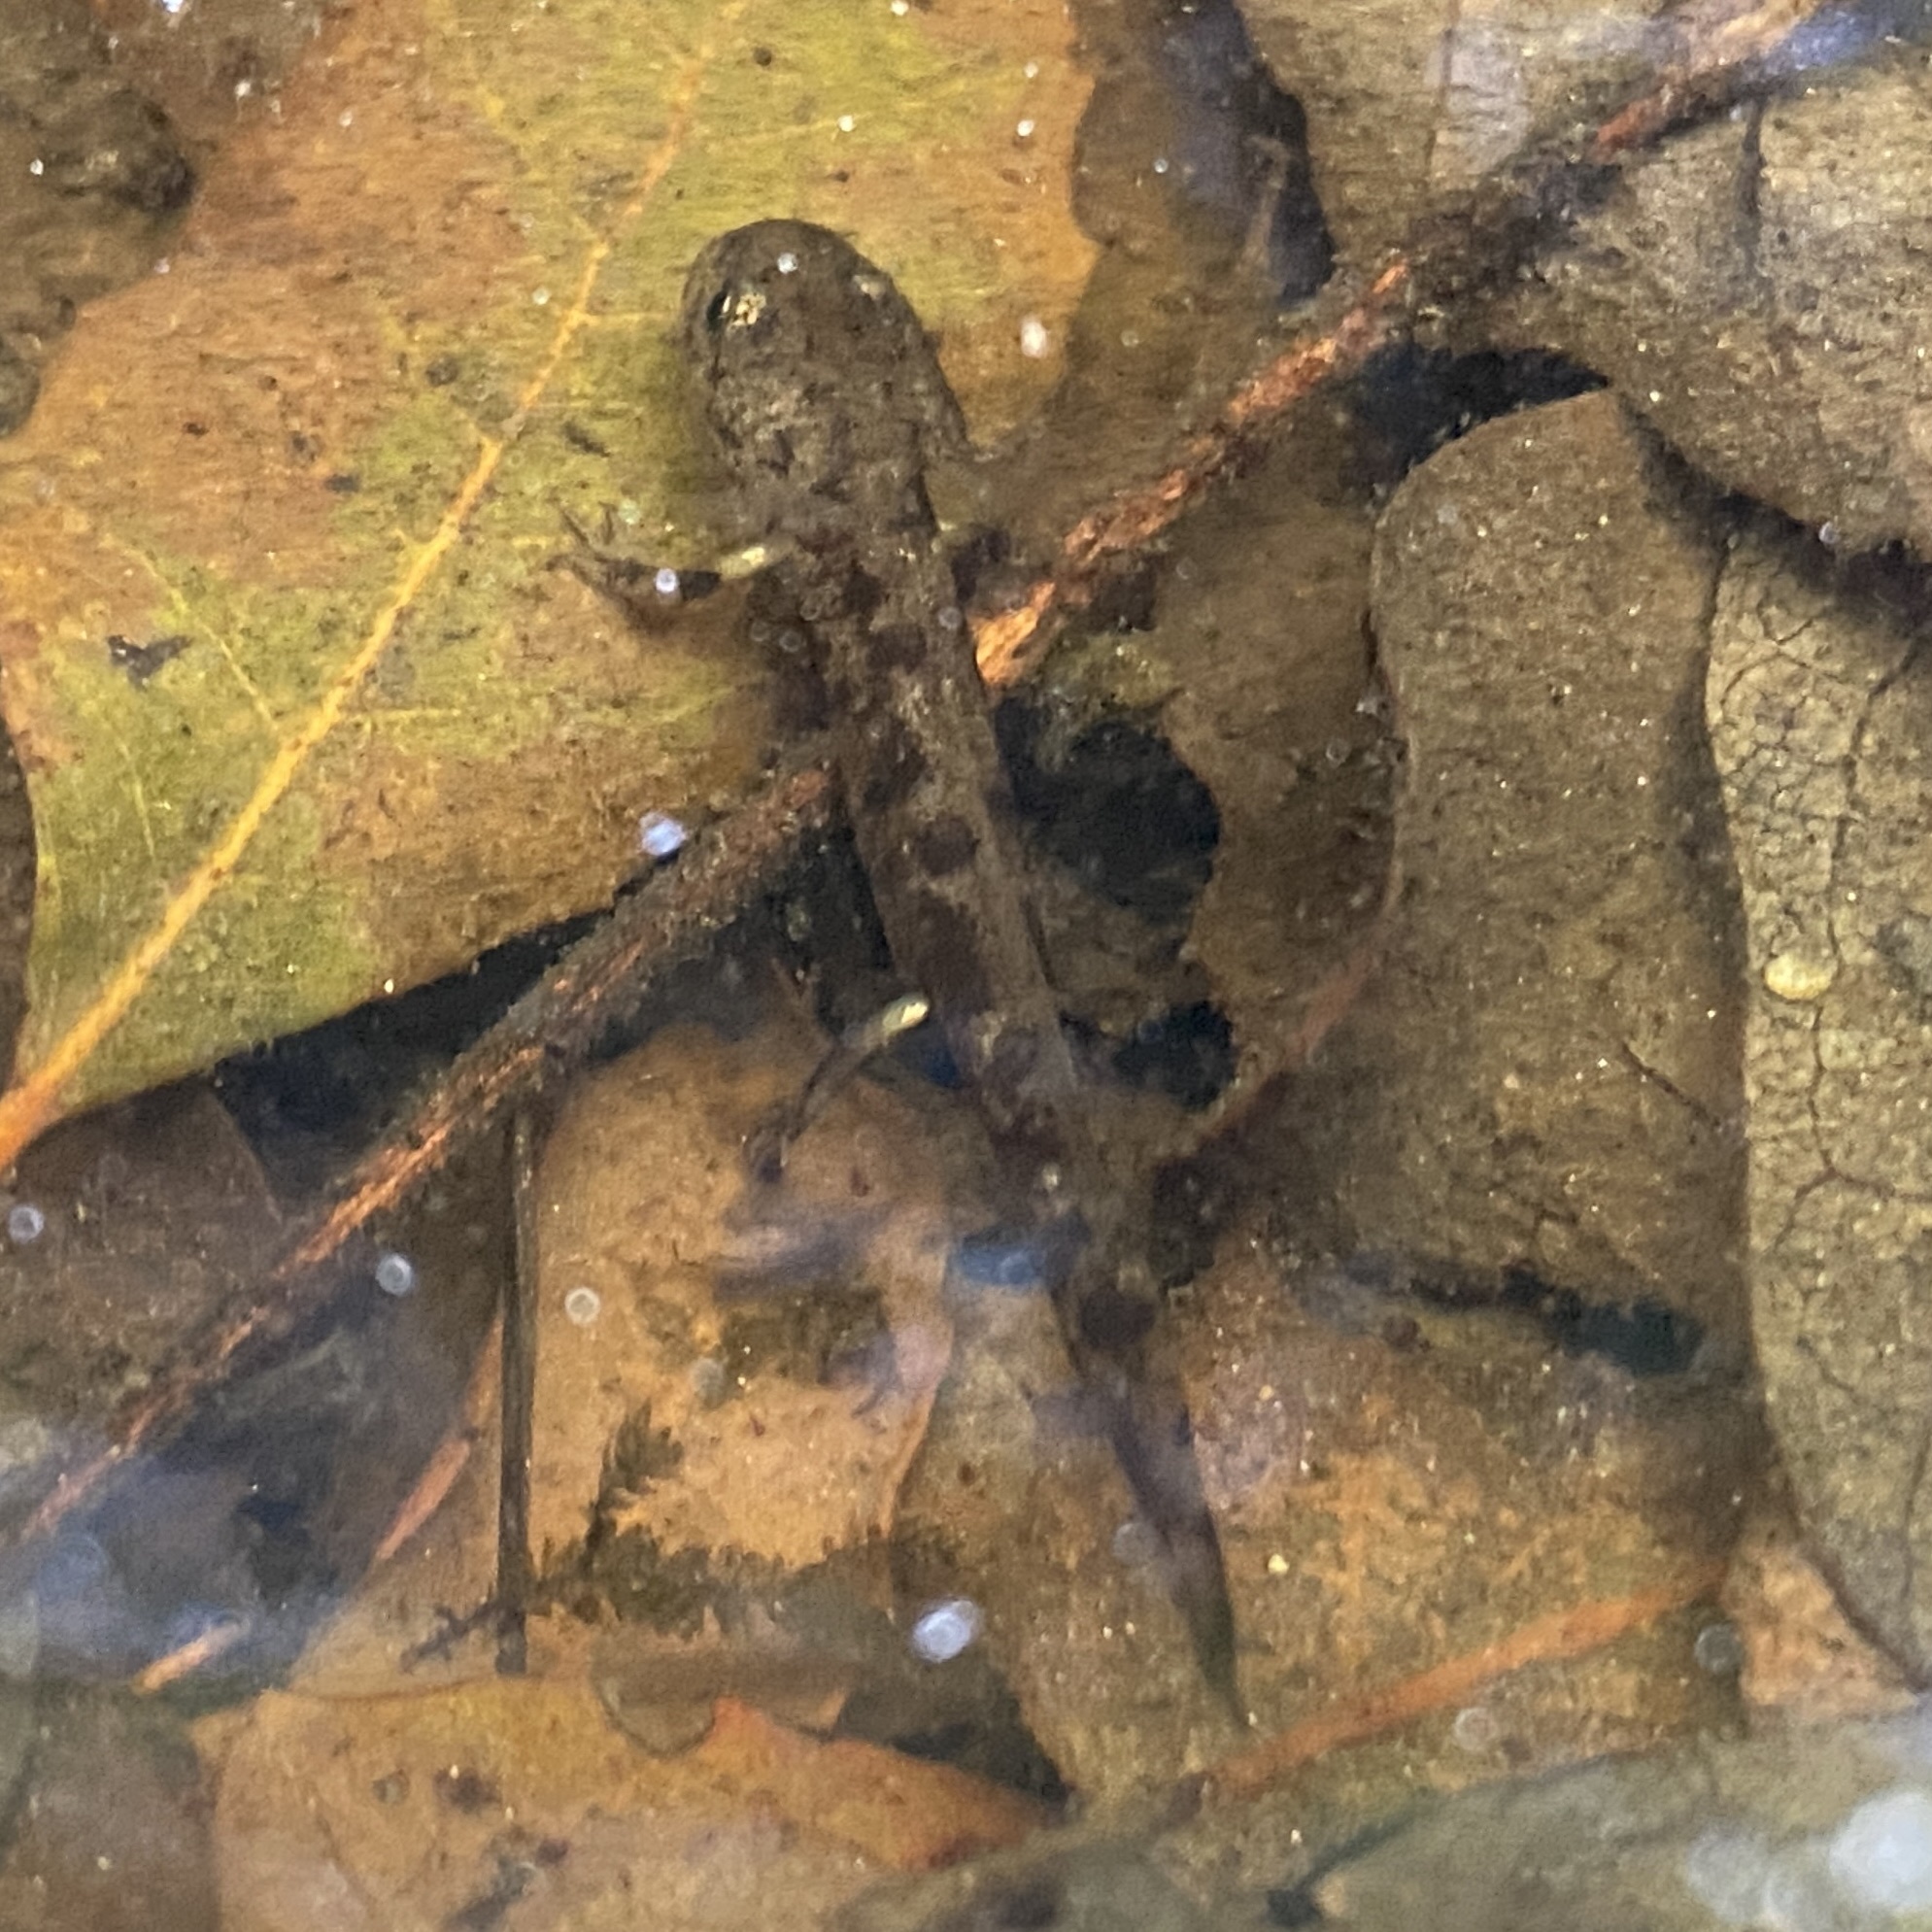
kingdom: Animalia
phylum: Chordata
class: Amphibia
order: Caudata
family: Salamandridae
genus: Salamandra
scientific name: Salamandra salamandra
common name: Fire salamander
